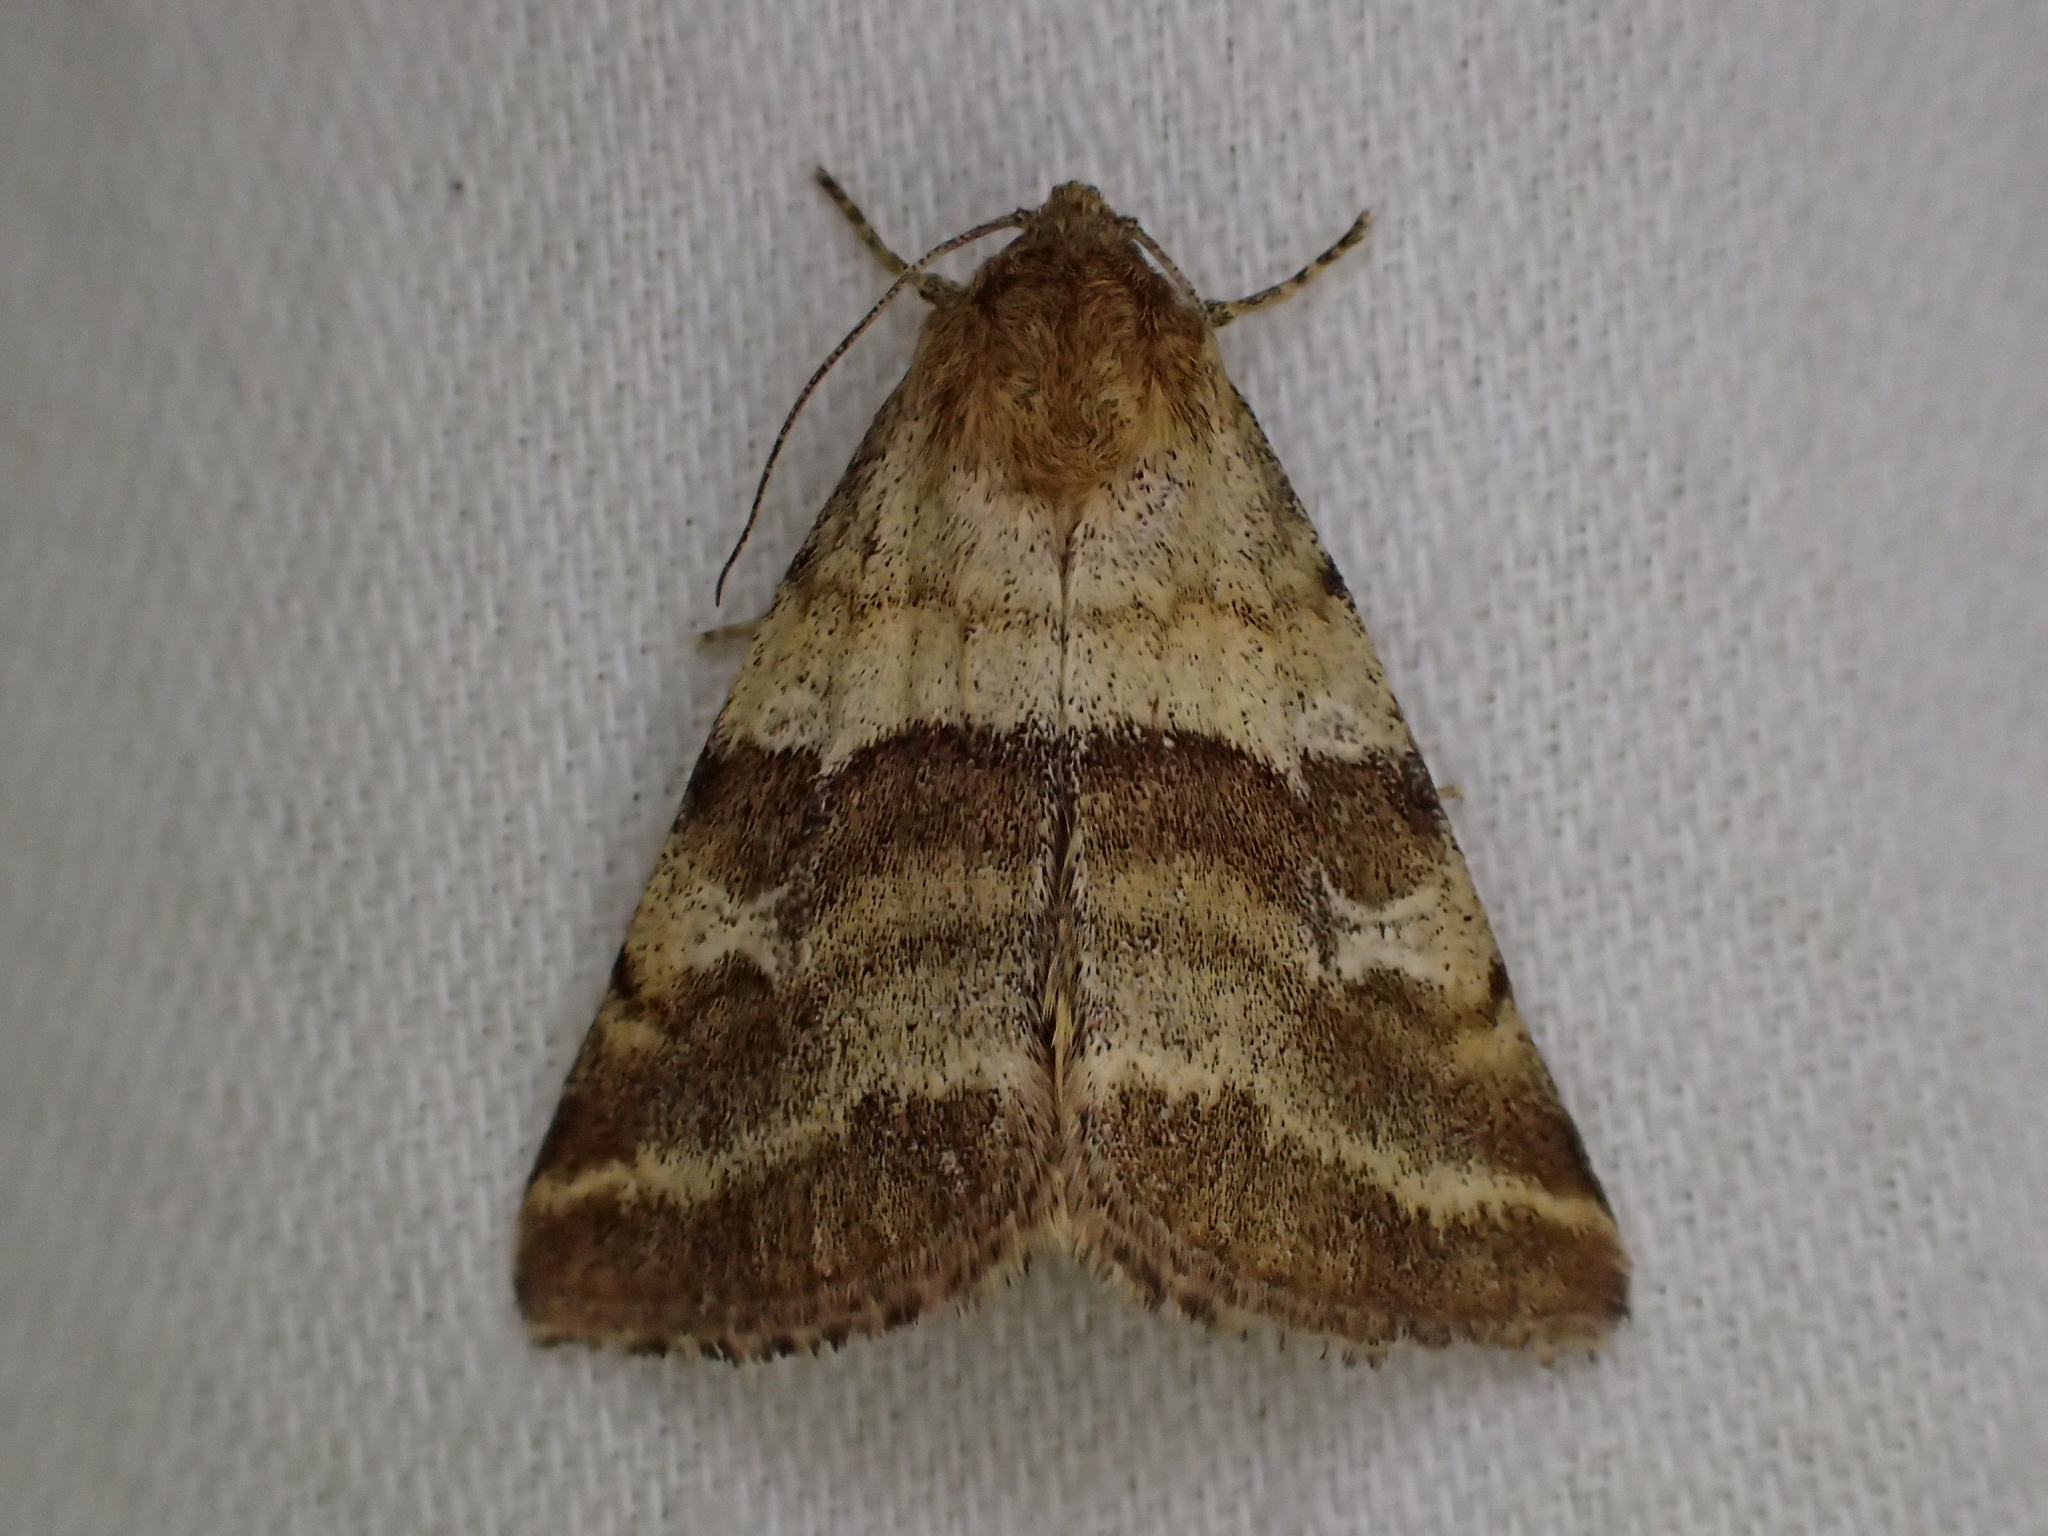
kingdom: Animalia
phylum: Arthropoda
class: Insecta
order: Lepidoptera
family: Noctuidae
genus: Synthymia
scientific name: Synthymia fixa
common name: Goldwing
